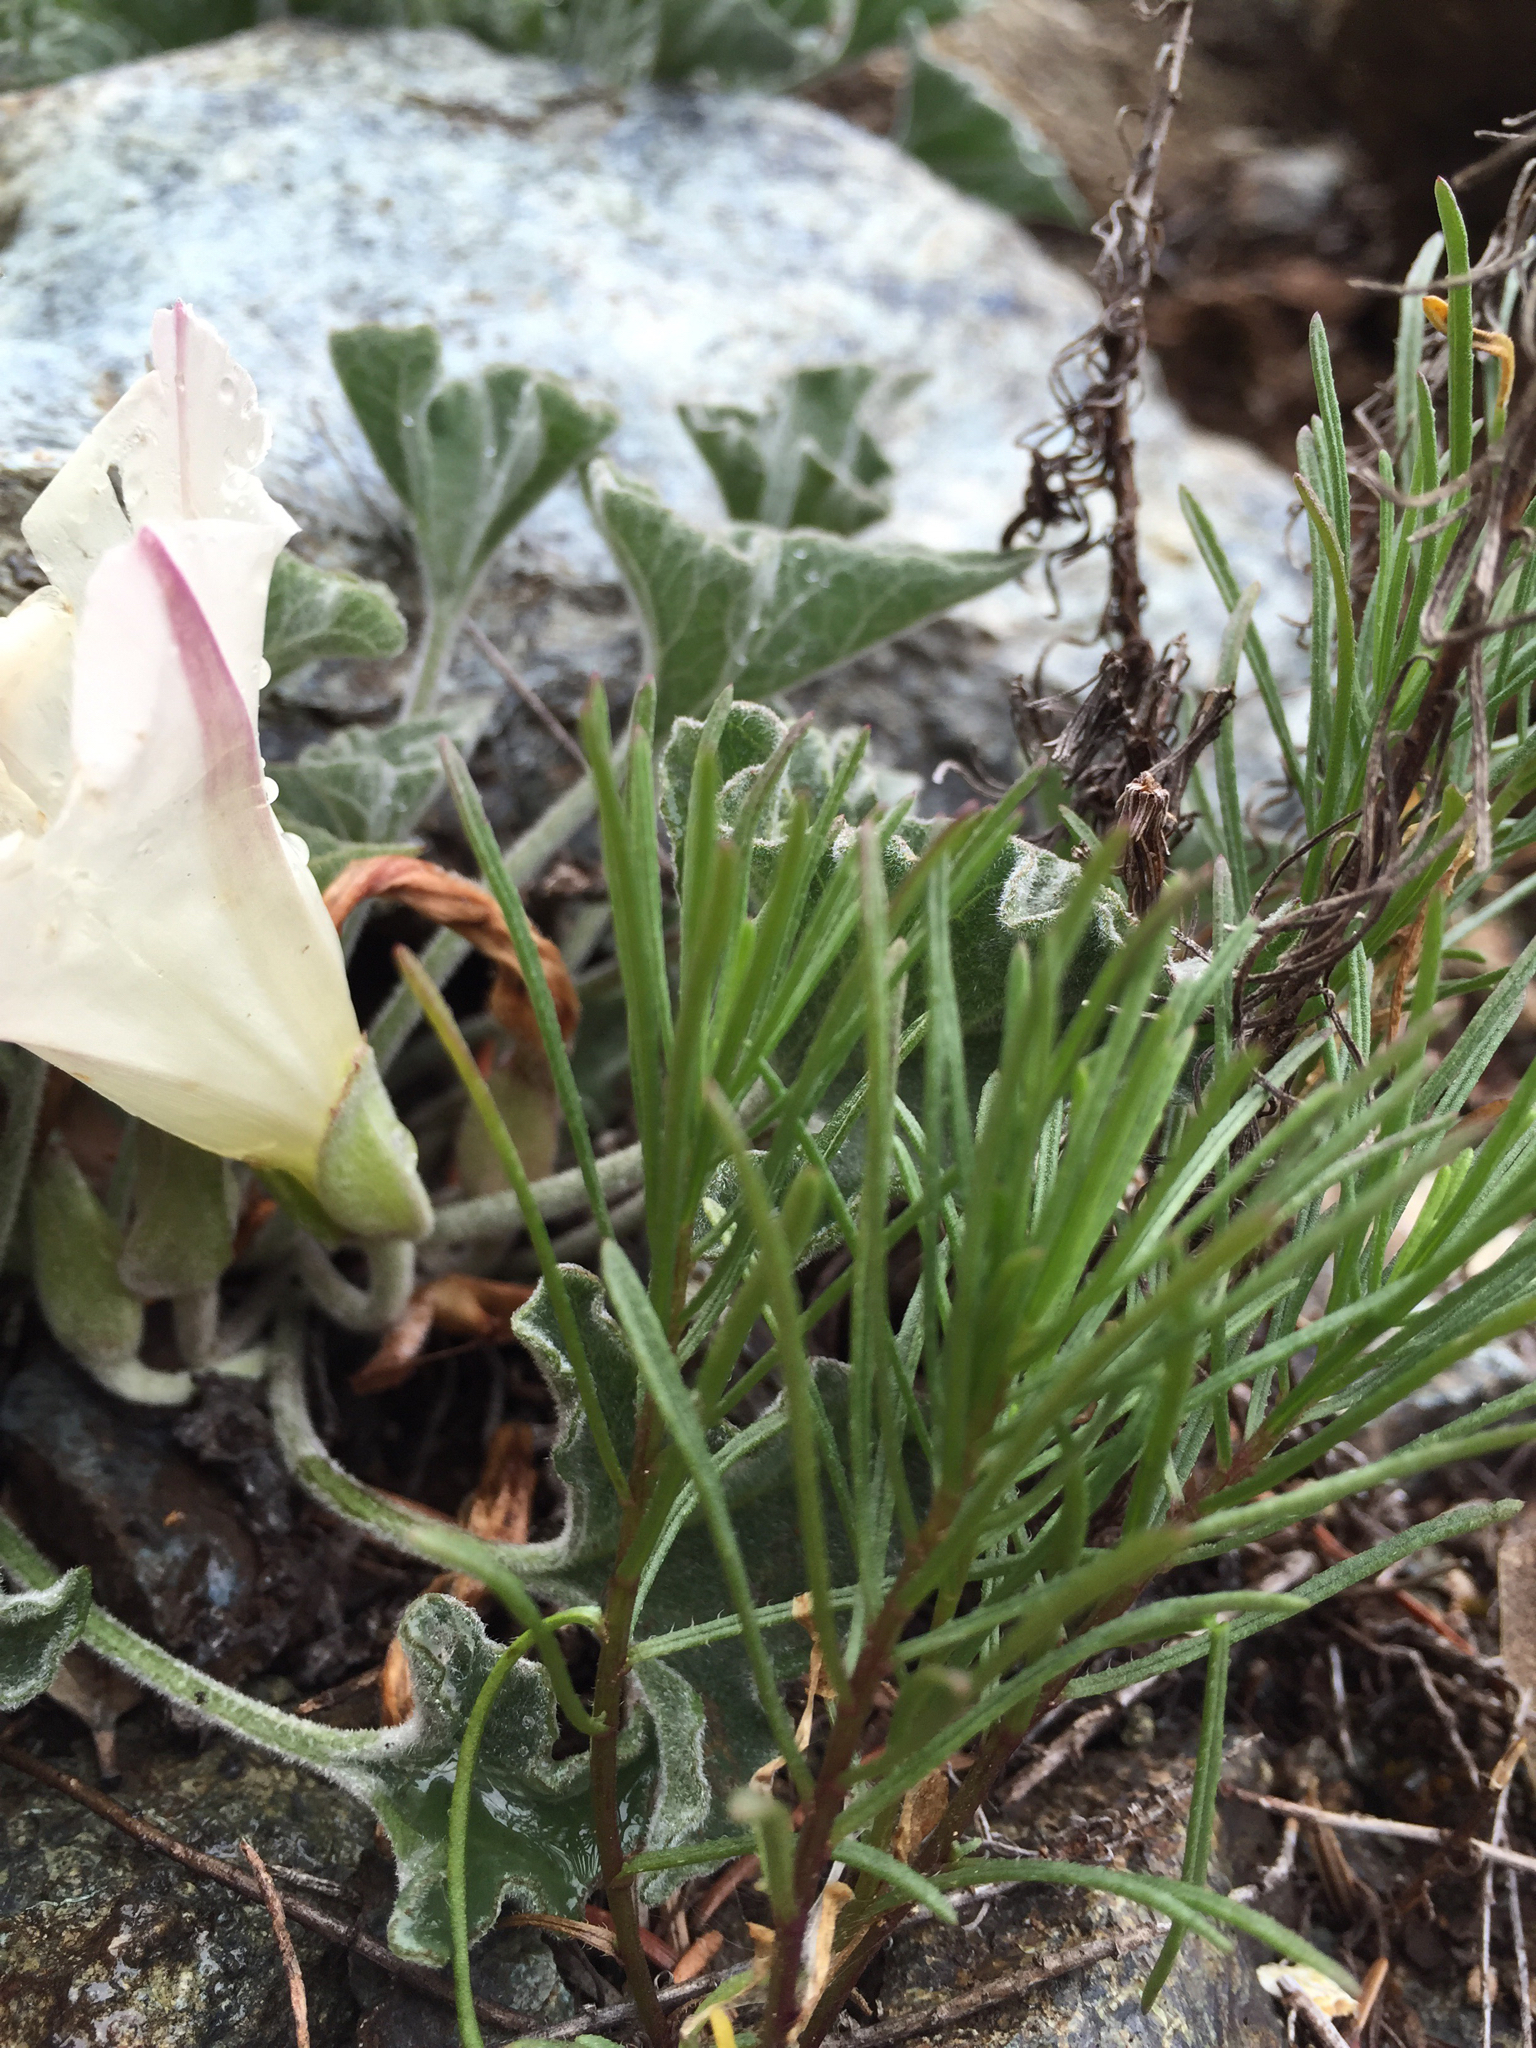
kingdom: Plantae
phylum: Tracheophyta
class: Magnoliopsida
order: Solanales
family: Convolvulaceae
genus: Calystegia
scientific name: Calystegia collina
